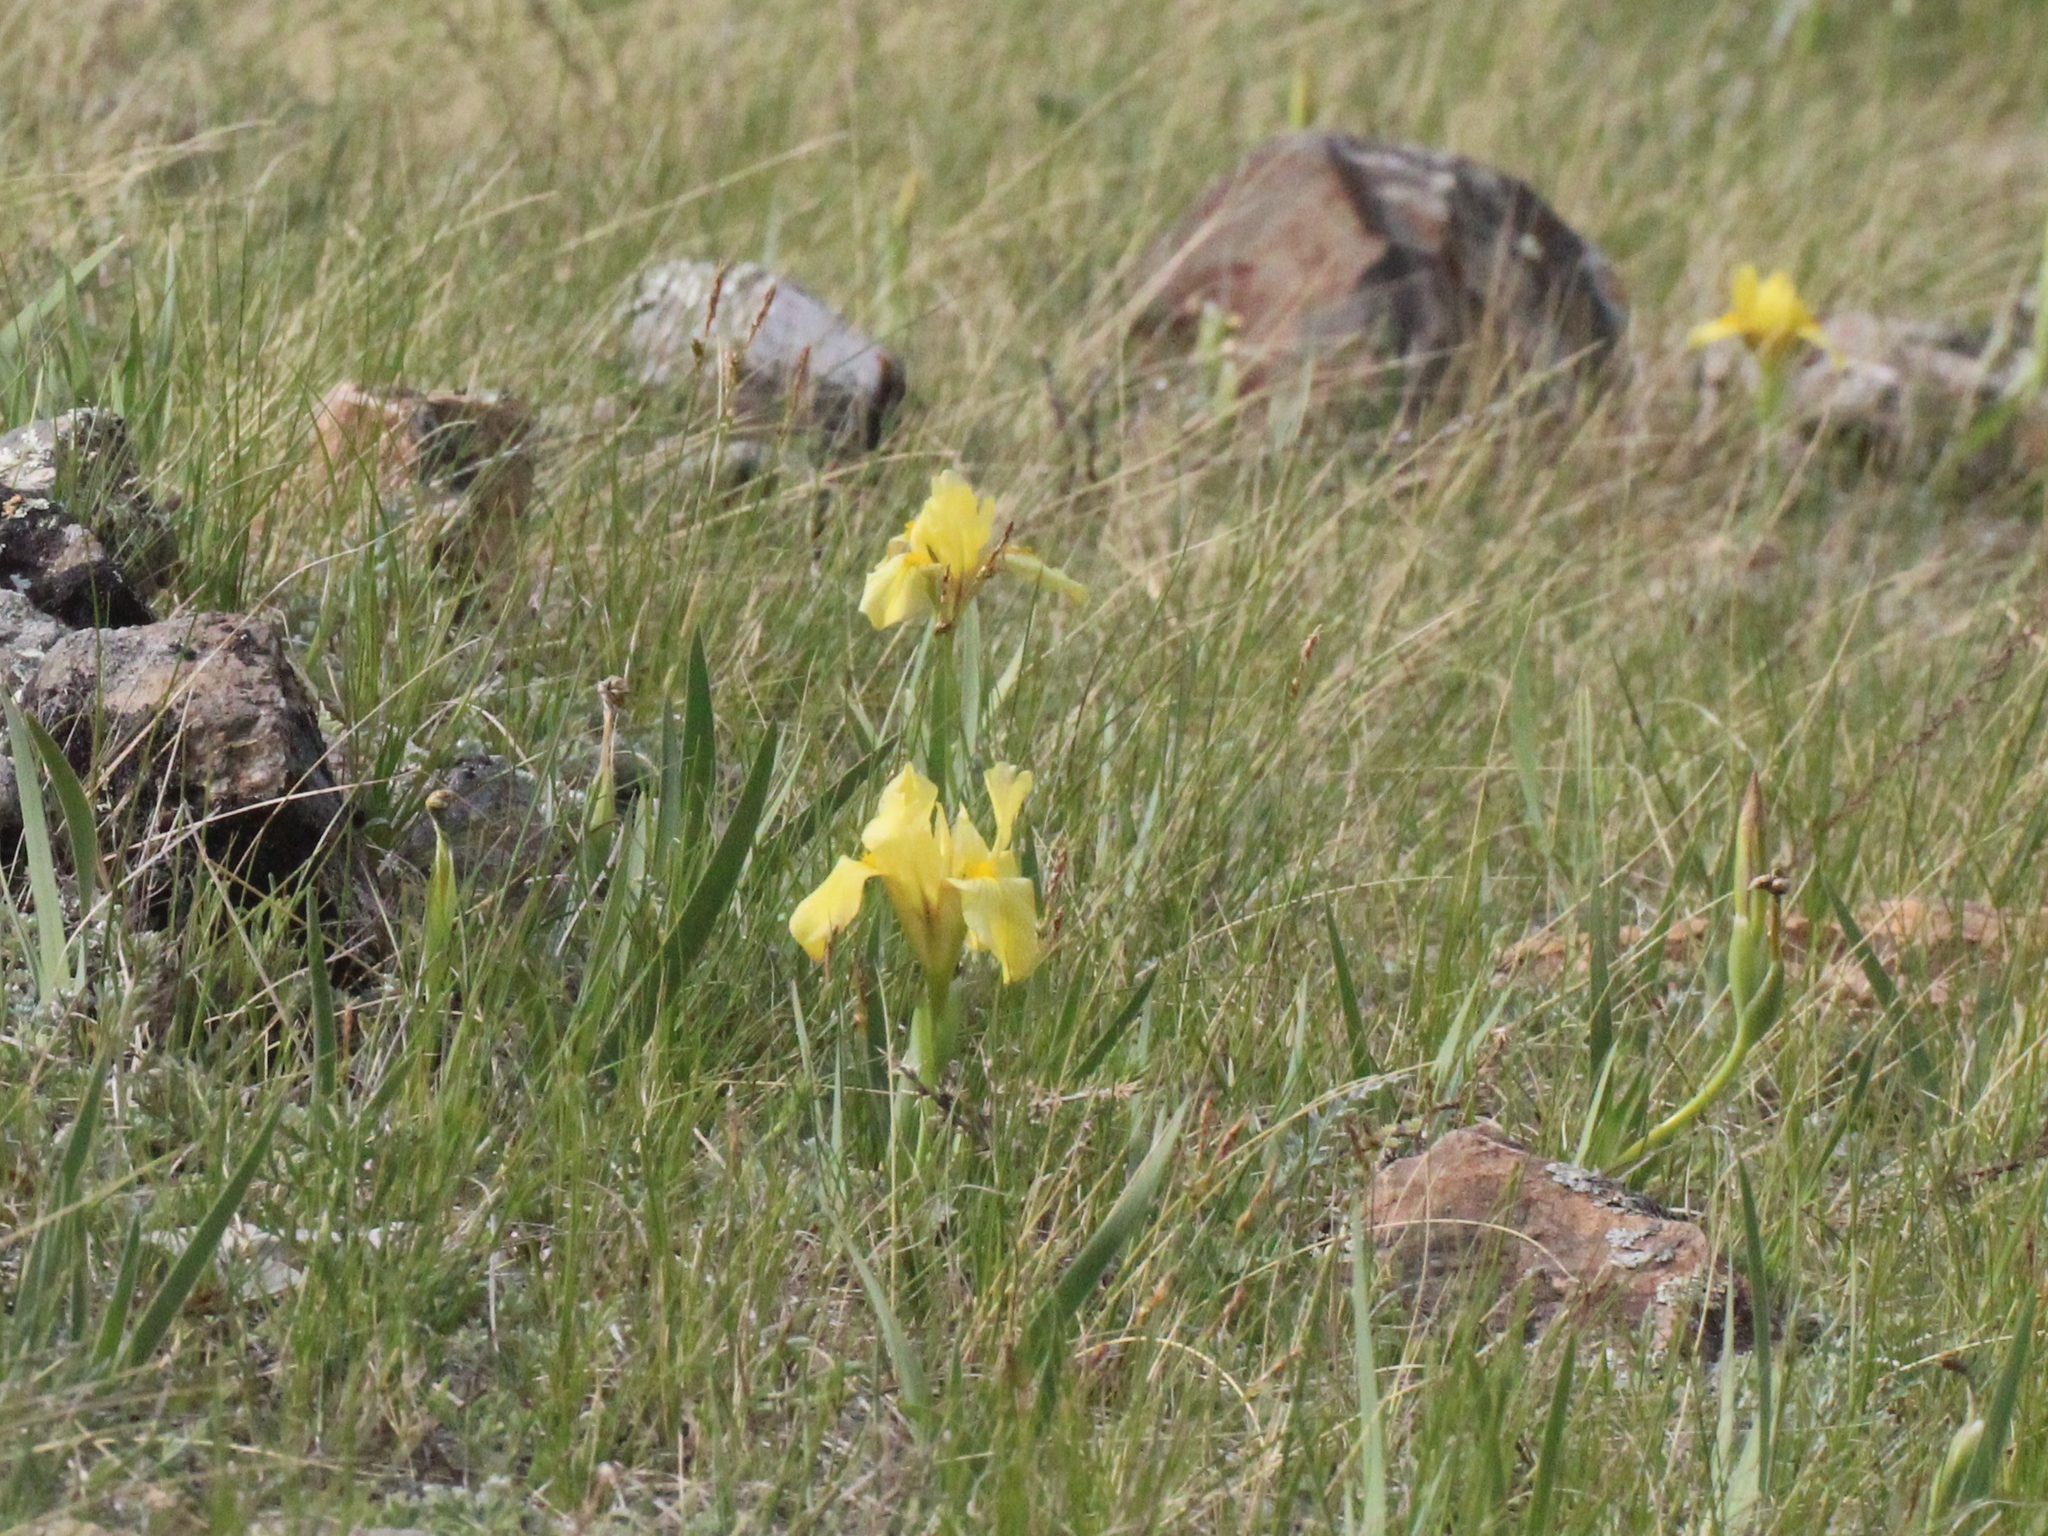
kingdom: Plantae
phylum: Tracheophyta
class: Liliopsida
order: Asparagales
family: Iridaceae
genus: Iris
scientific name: Iris humilis
